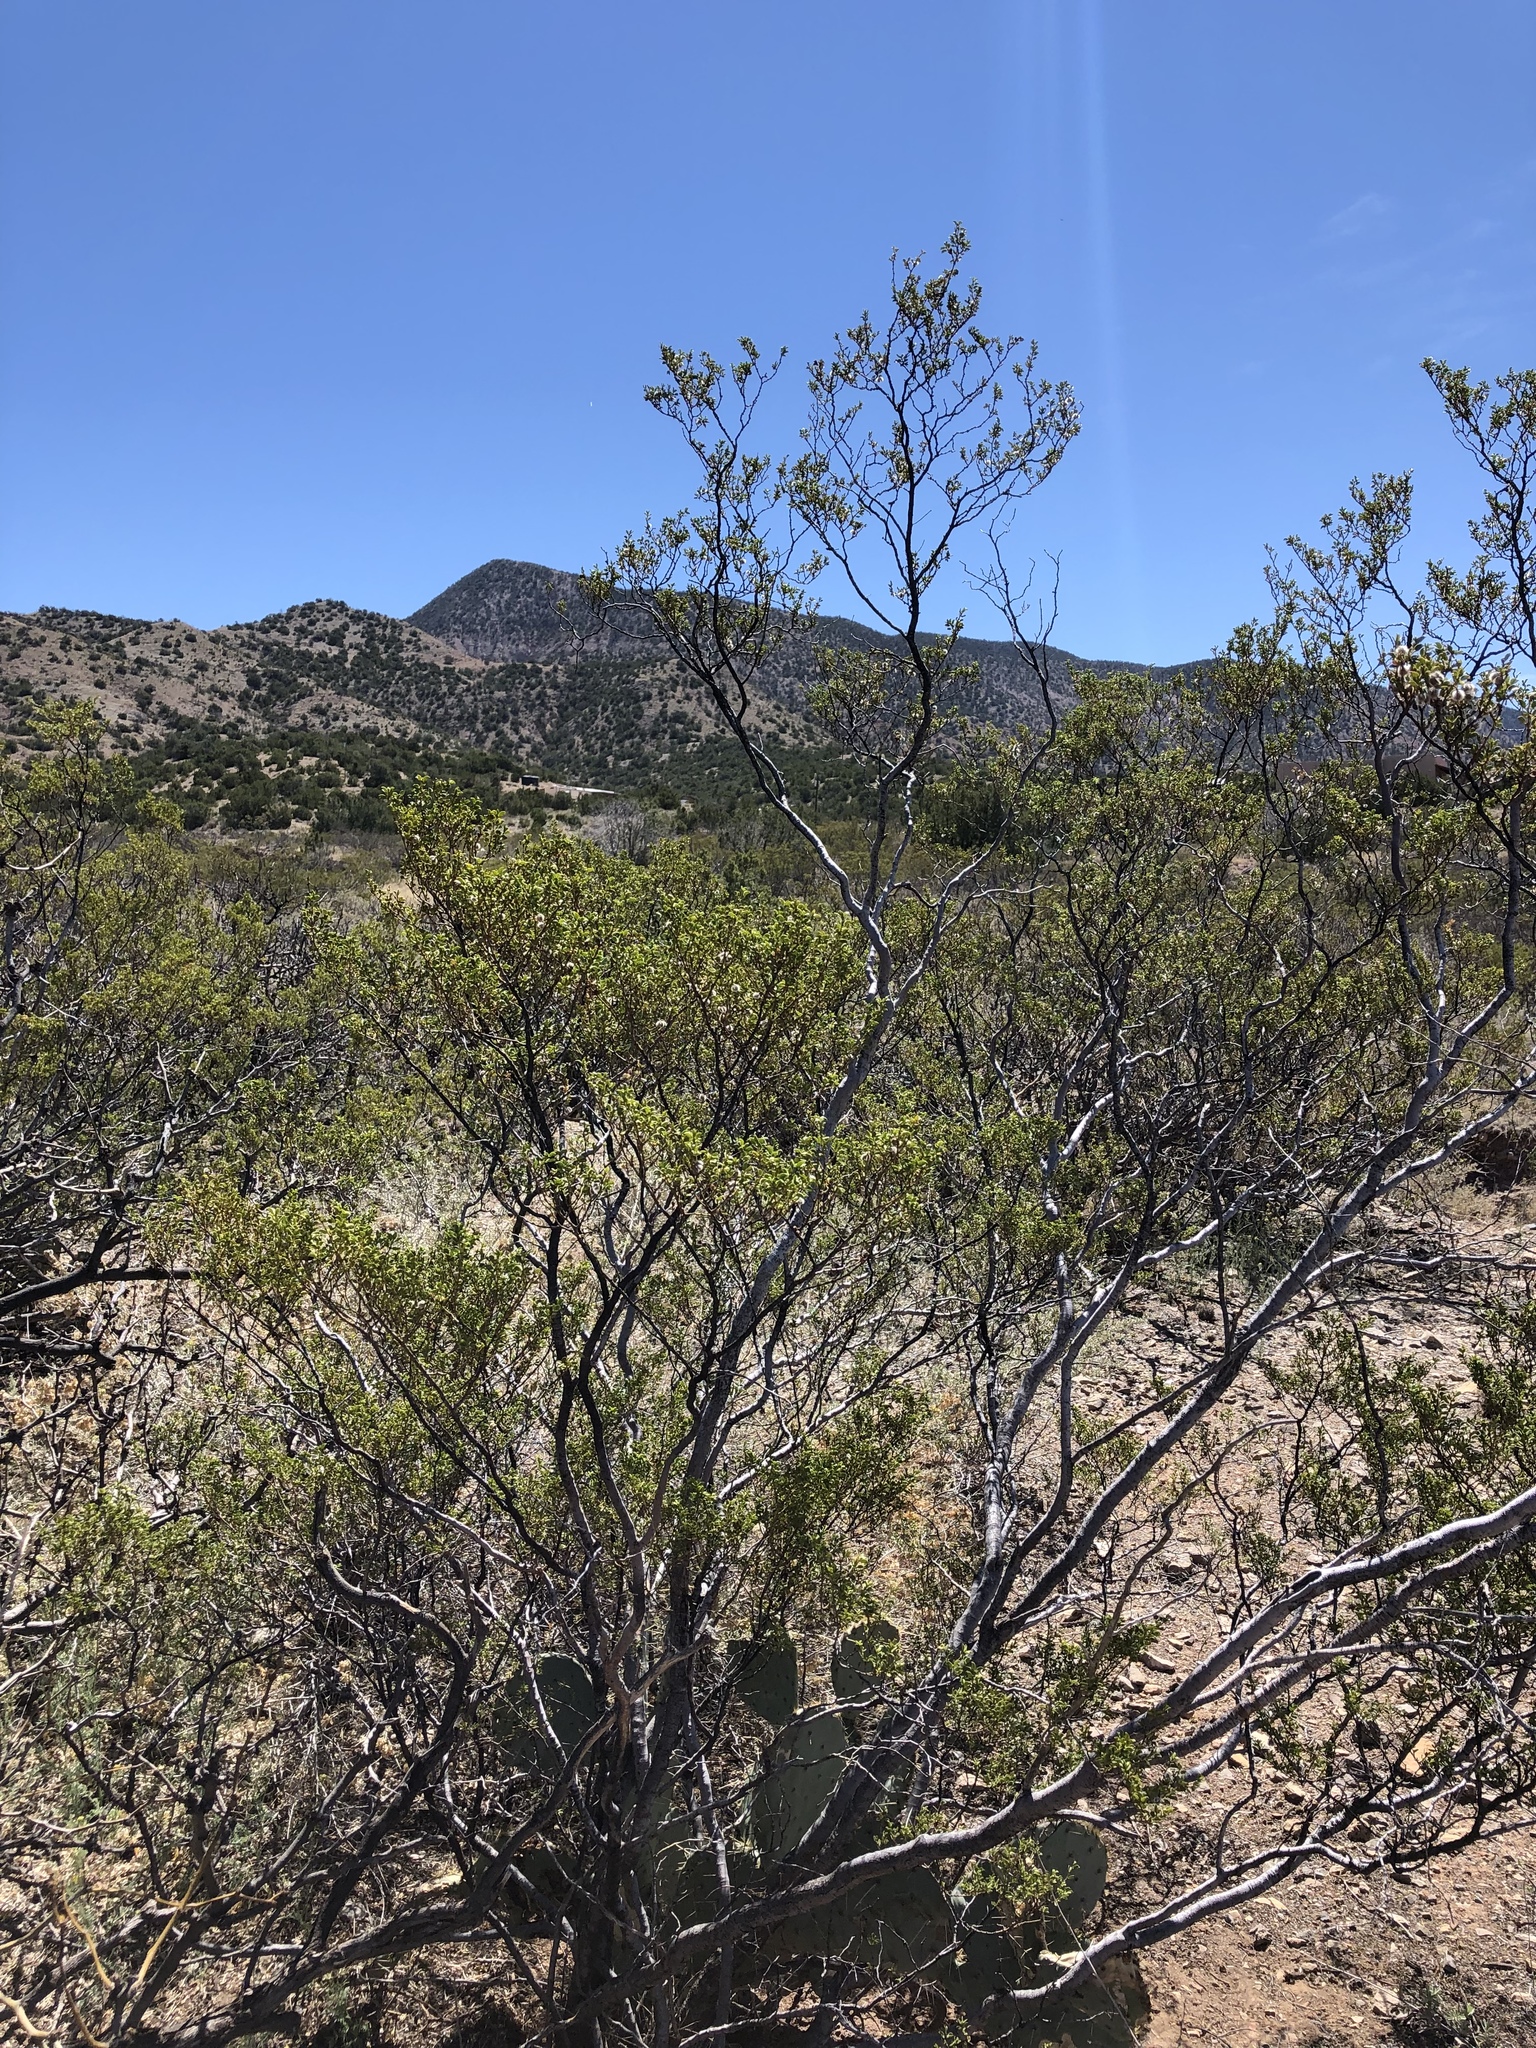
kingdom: Plantae
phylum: Tracheophyta
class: Magnoliopsida
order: Zygophyllales
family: Zygophyllaceae
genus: Larrea
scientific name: Larrea tridentata
